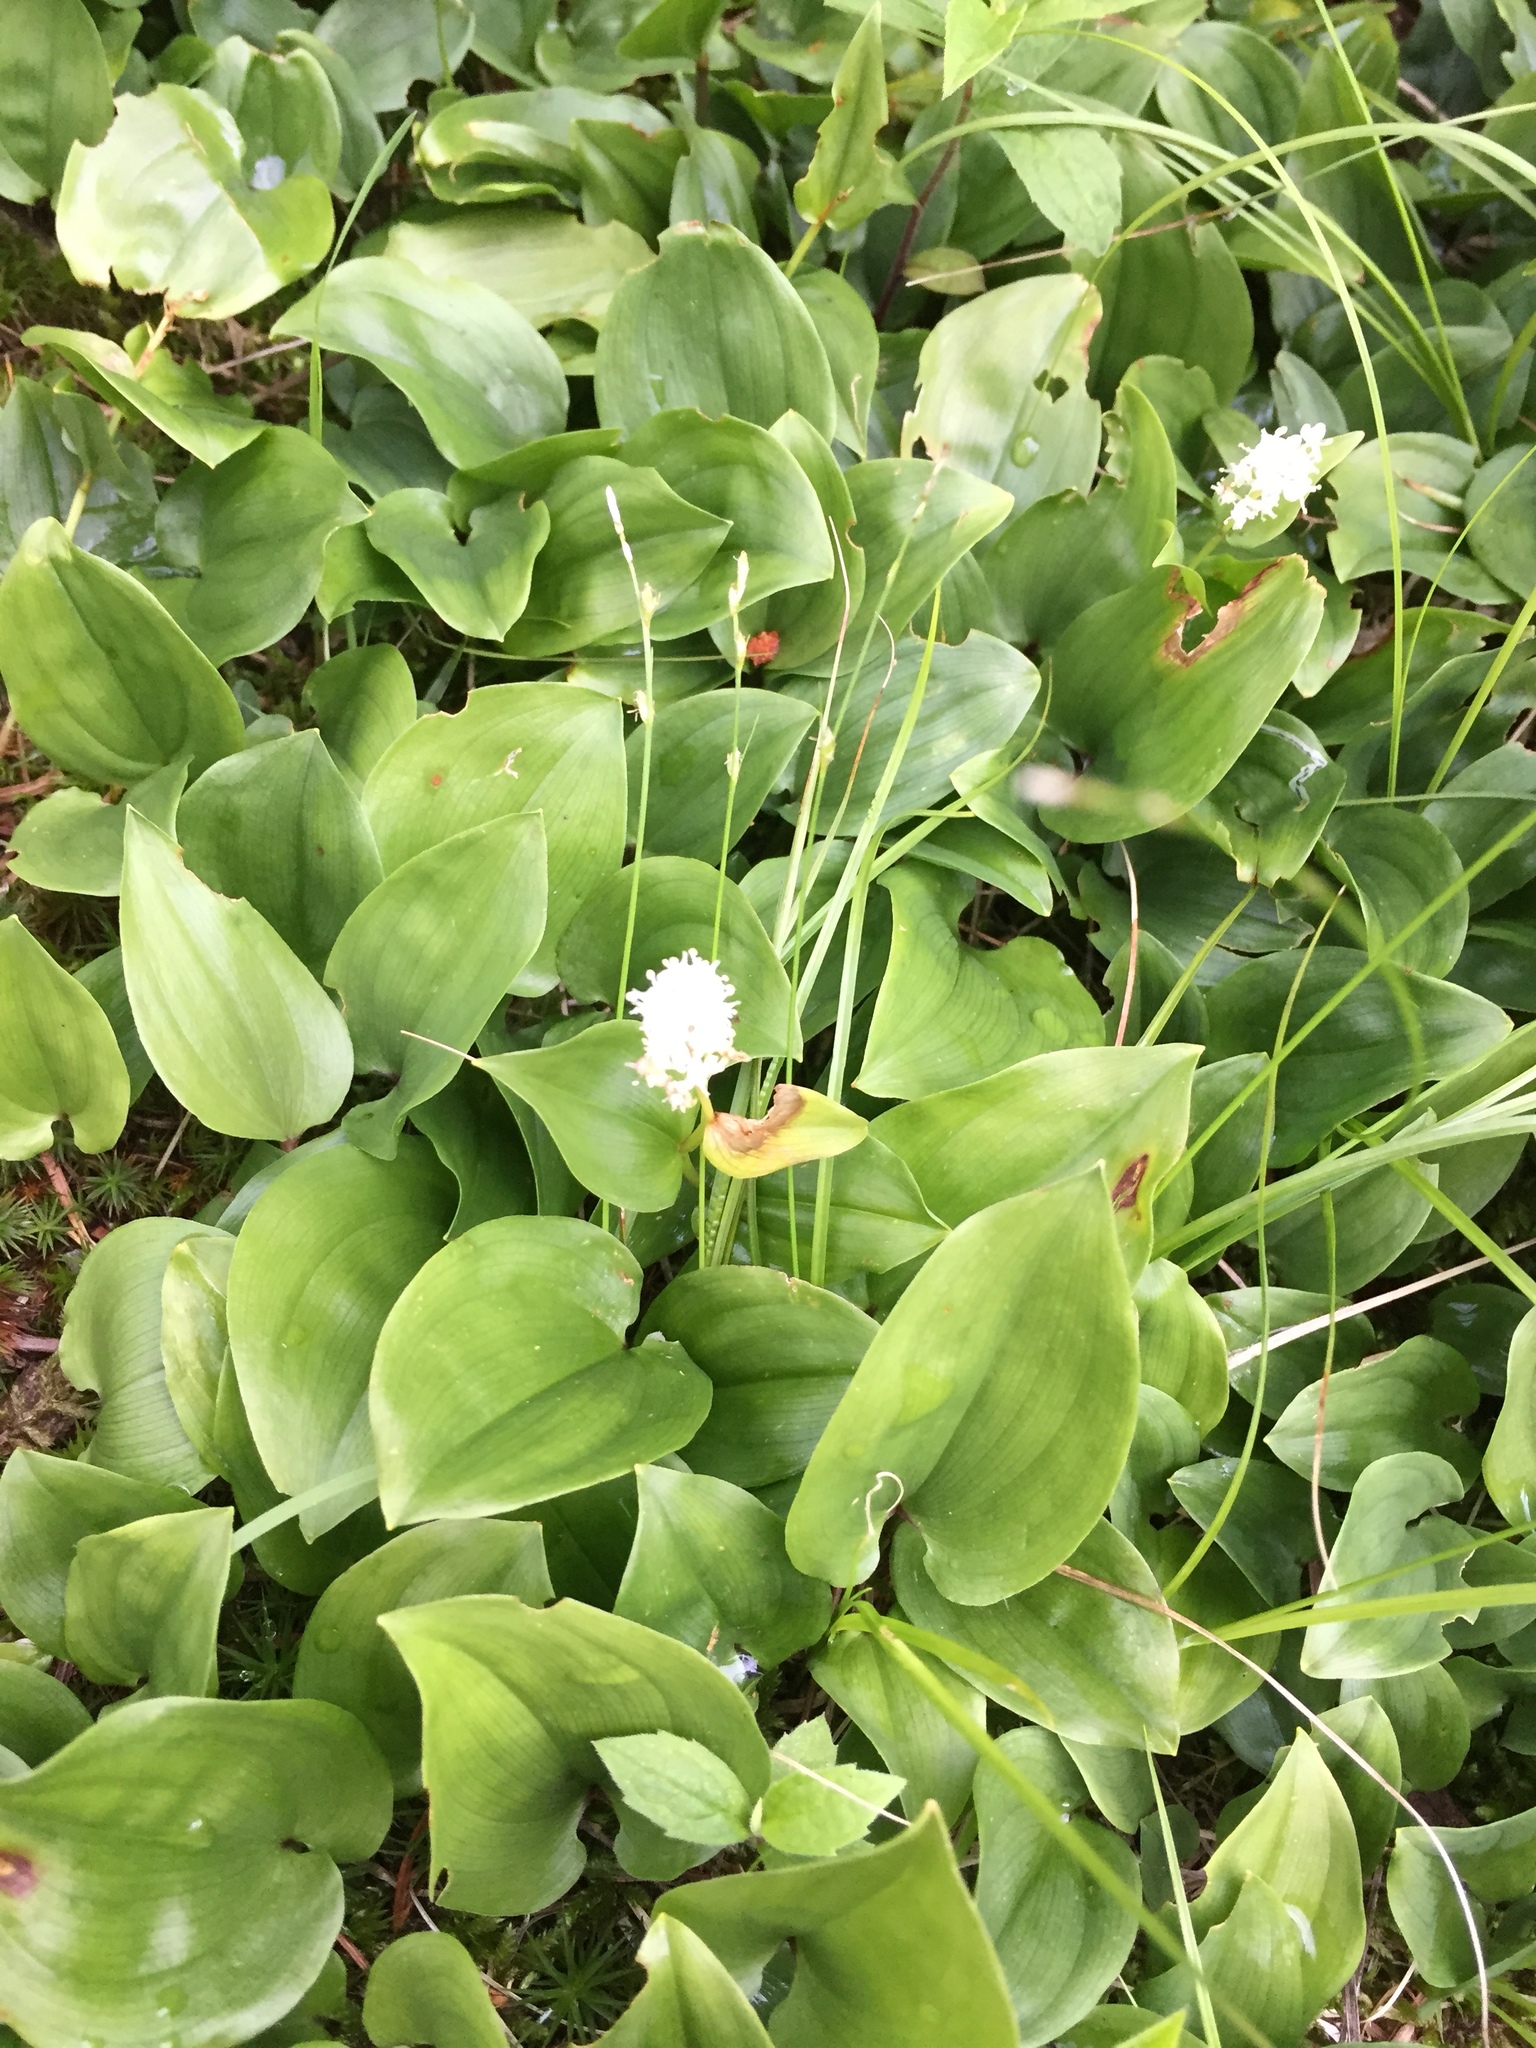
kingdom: Plantae
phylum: Tracheophyta
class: Liliopsida
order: Asparagales
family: Asparagaceae
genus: Maianthemum
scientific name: Maianthemum canadense
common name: False lily-of-the-valley
